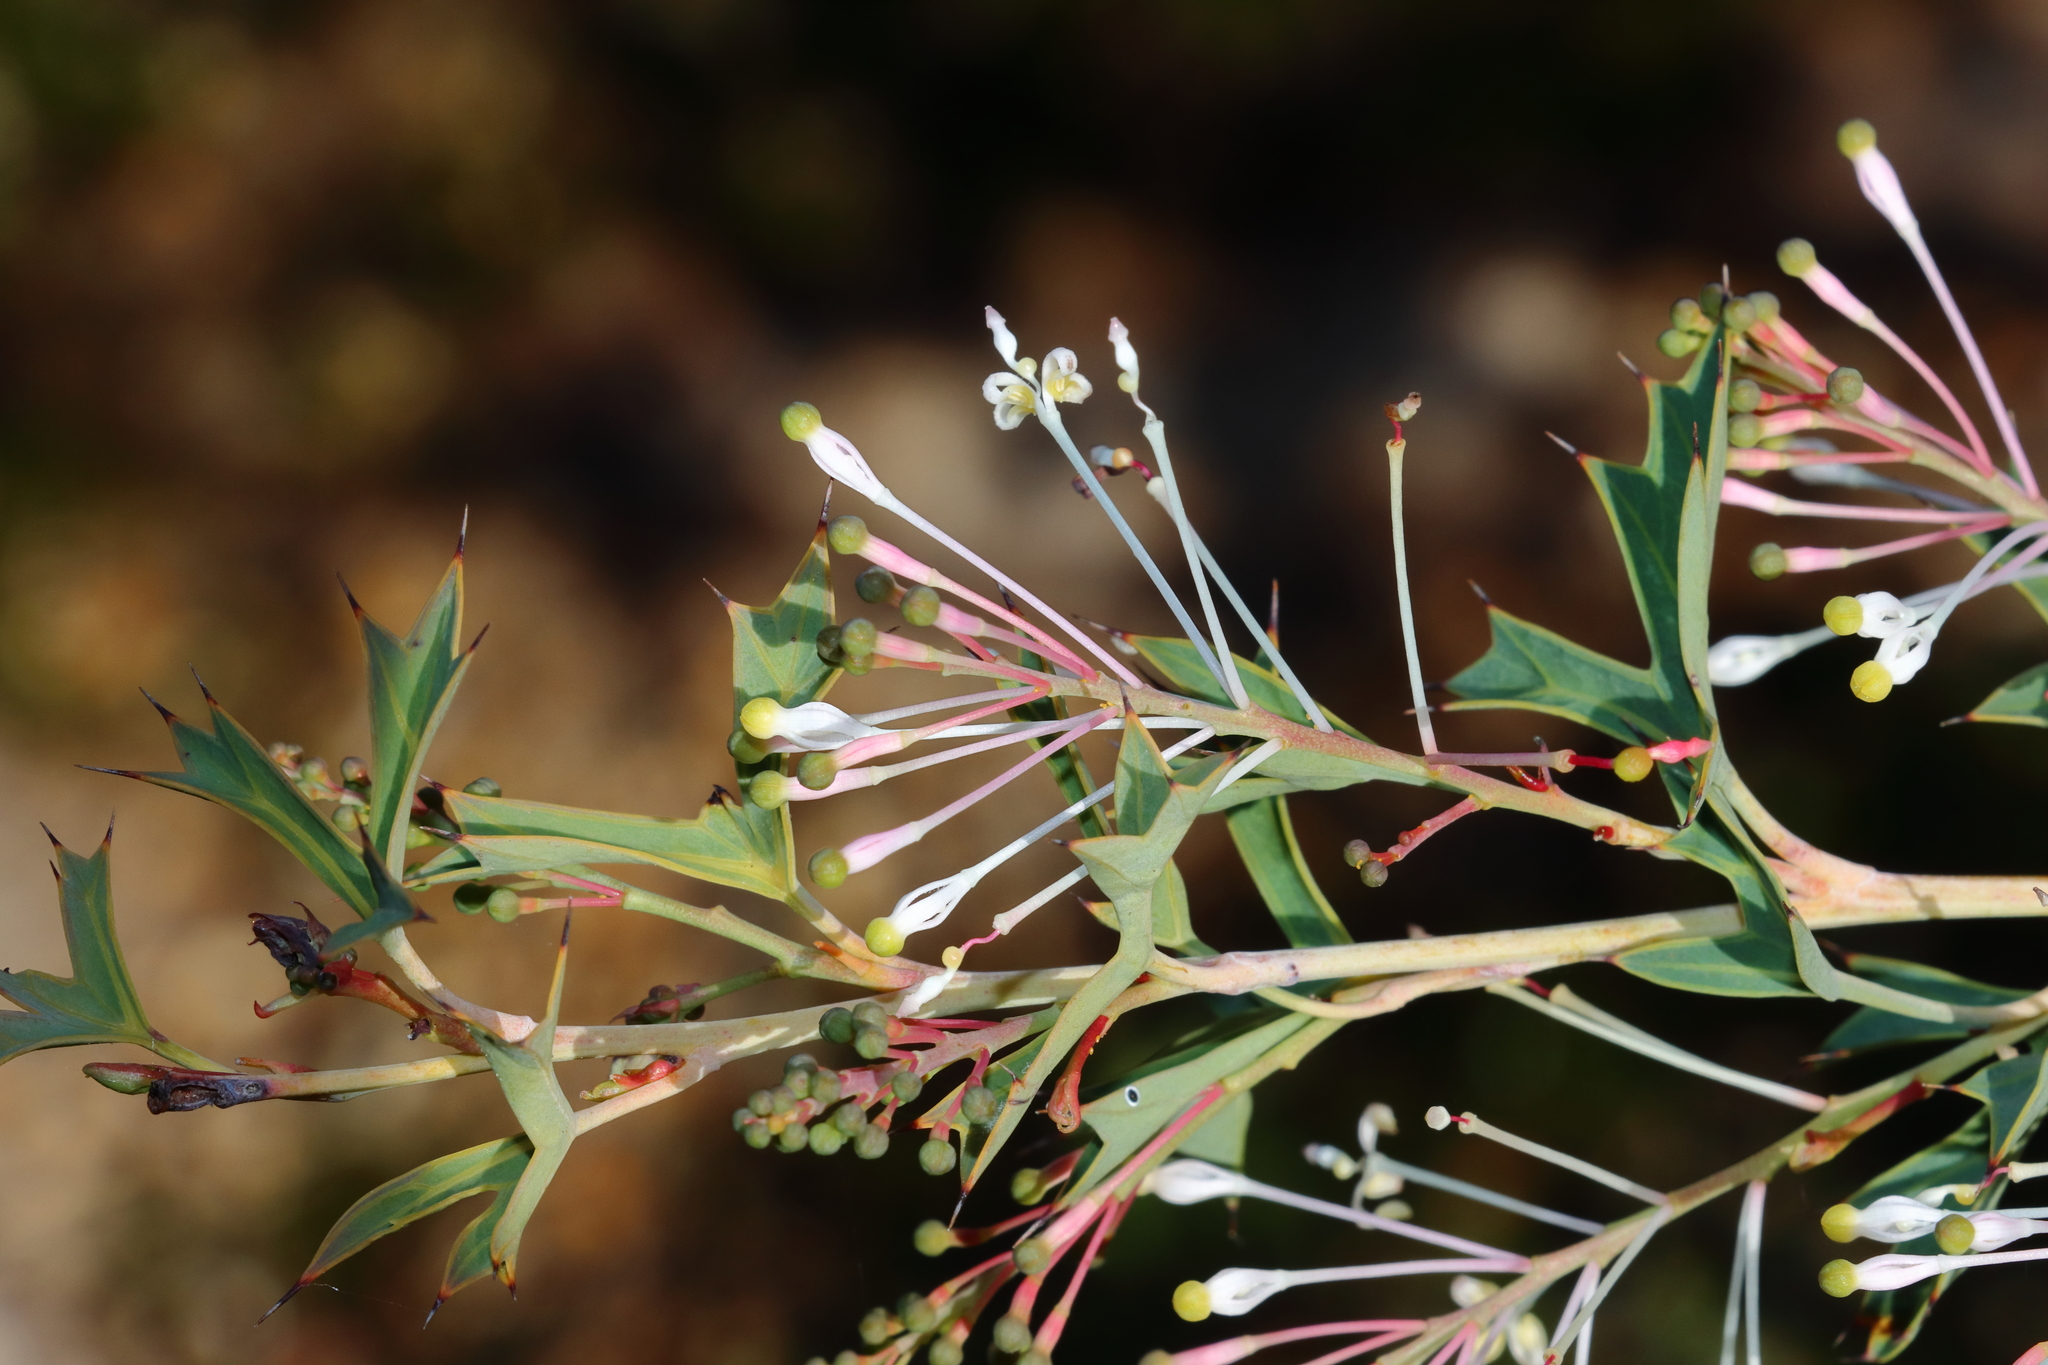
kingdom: Plantae
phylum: Tracheophyta
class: Magnoliopsida
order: Proteales
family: Proteaceae
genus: Grevillea
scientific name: Grevillea manglesii
